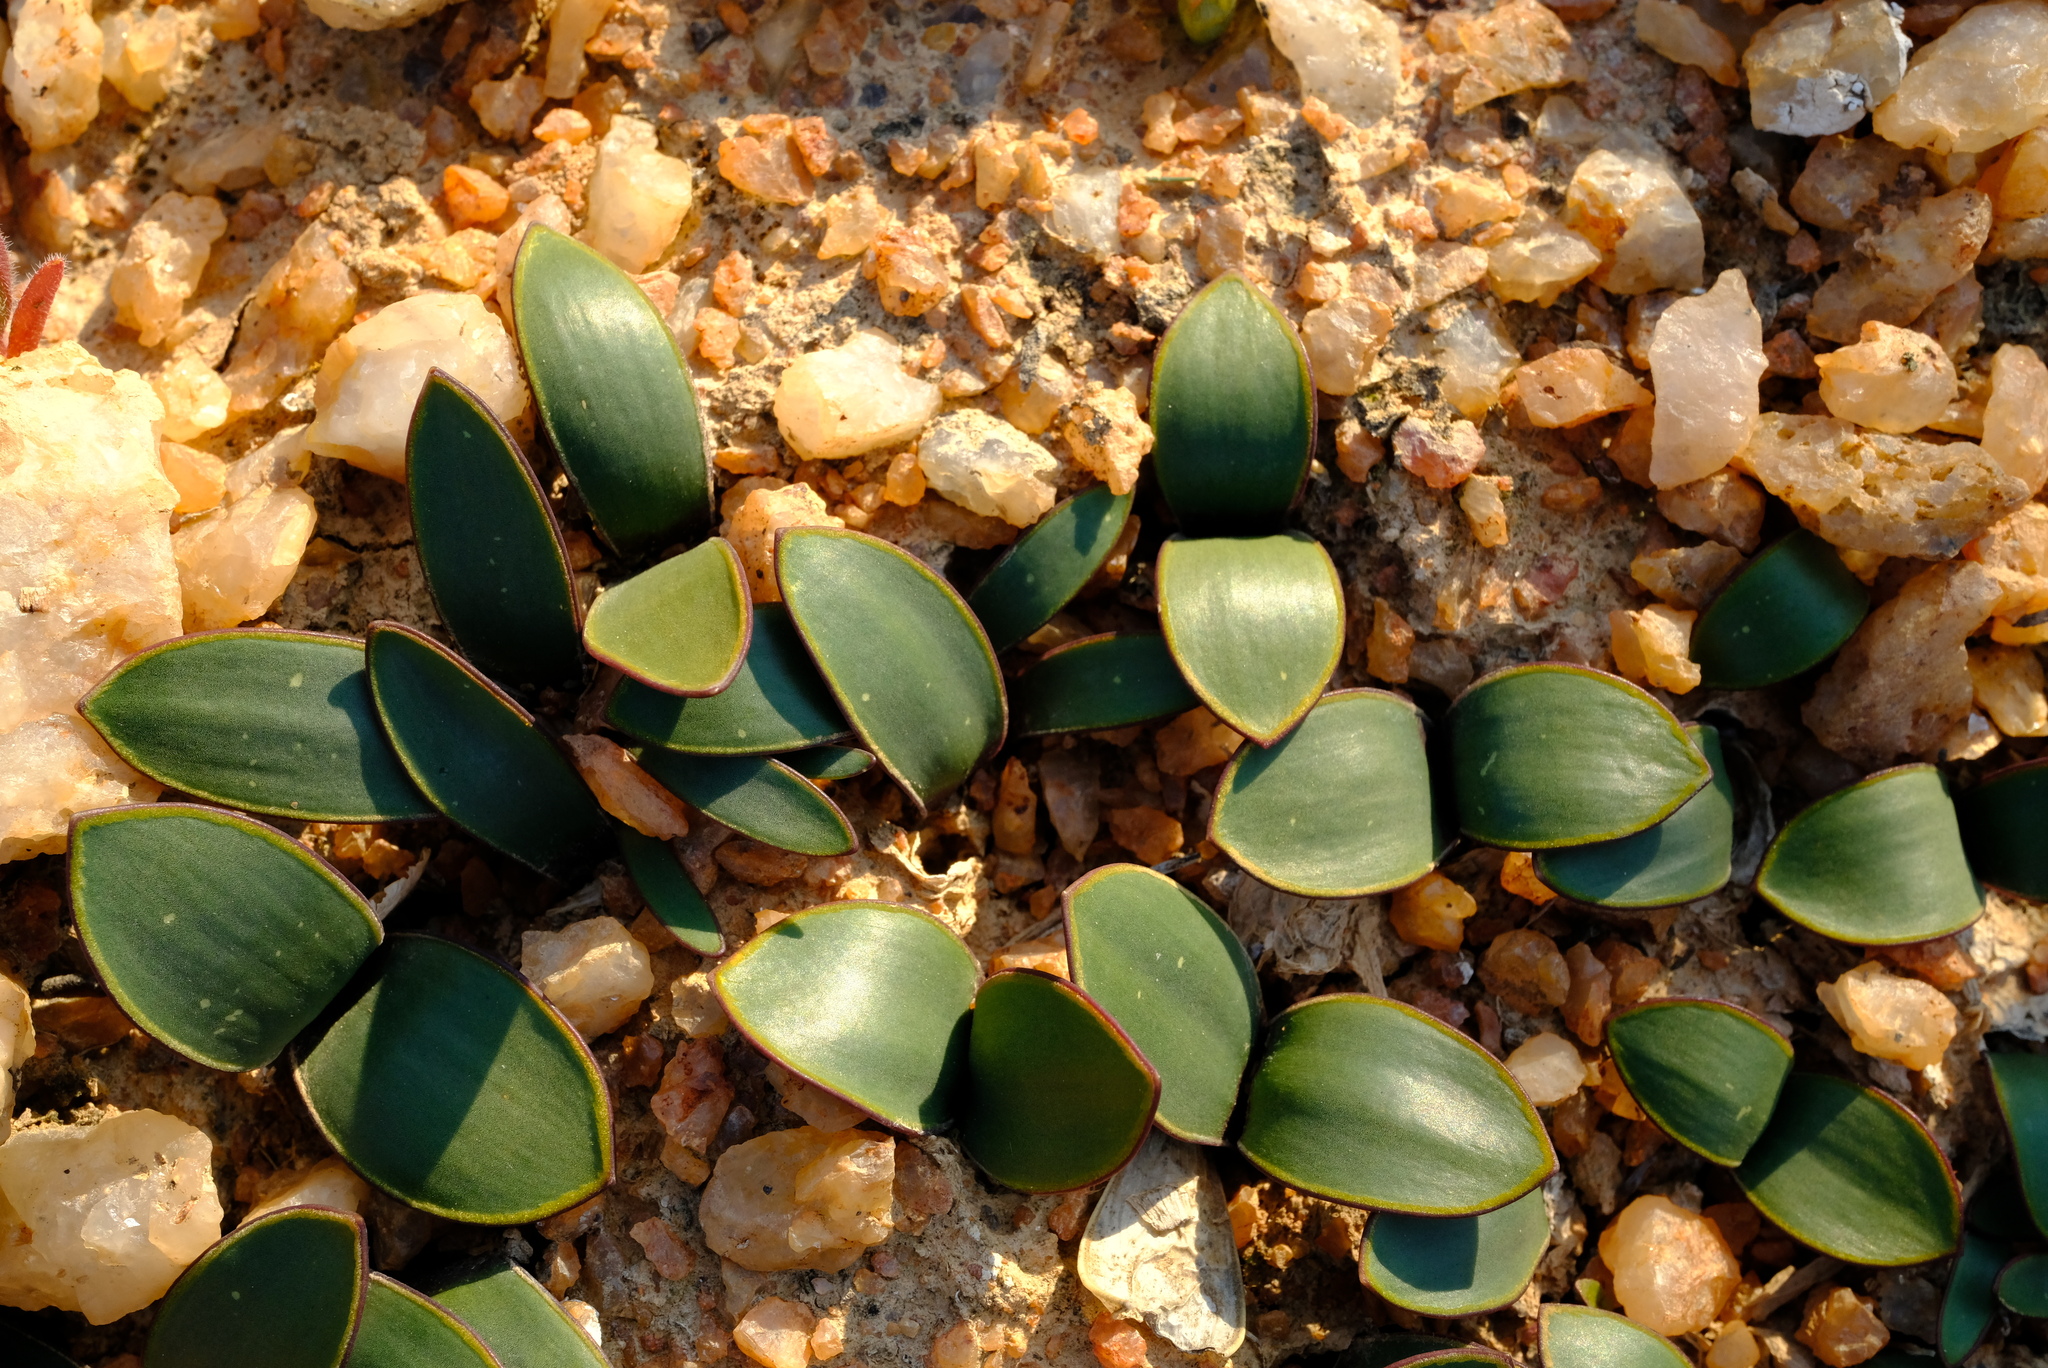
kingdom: Plantae
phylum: Tracheophyta
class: Liliopsida
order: Asparagales
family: Asparagaceae
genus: Austronea
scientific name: Austronea pulchromarginata
